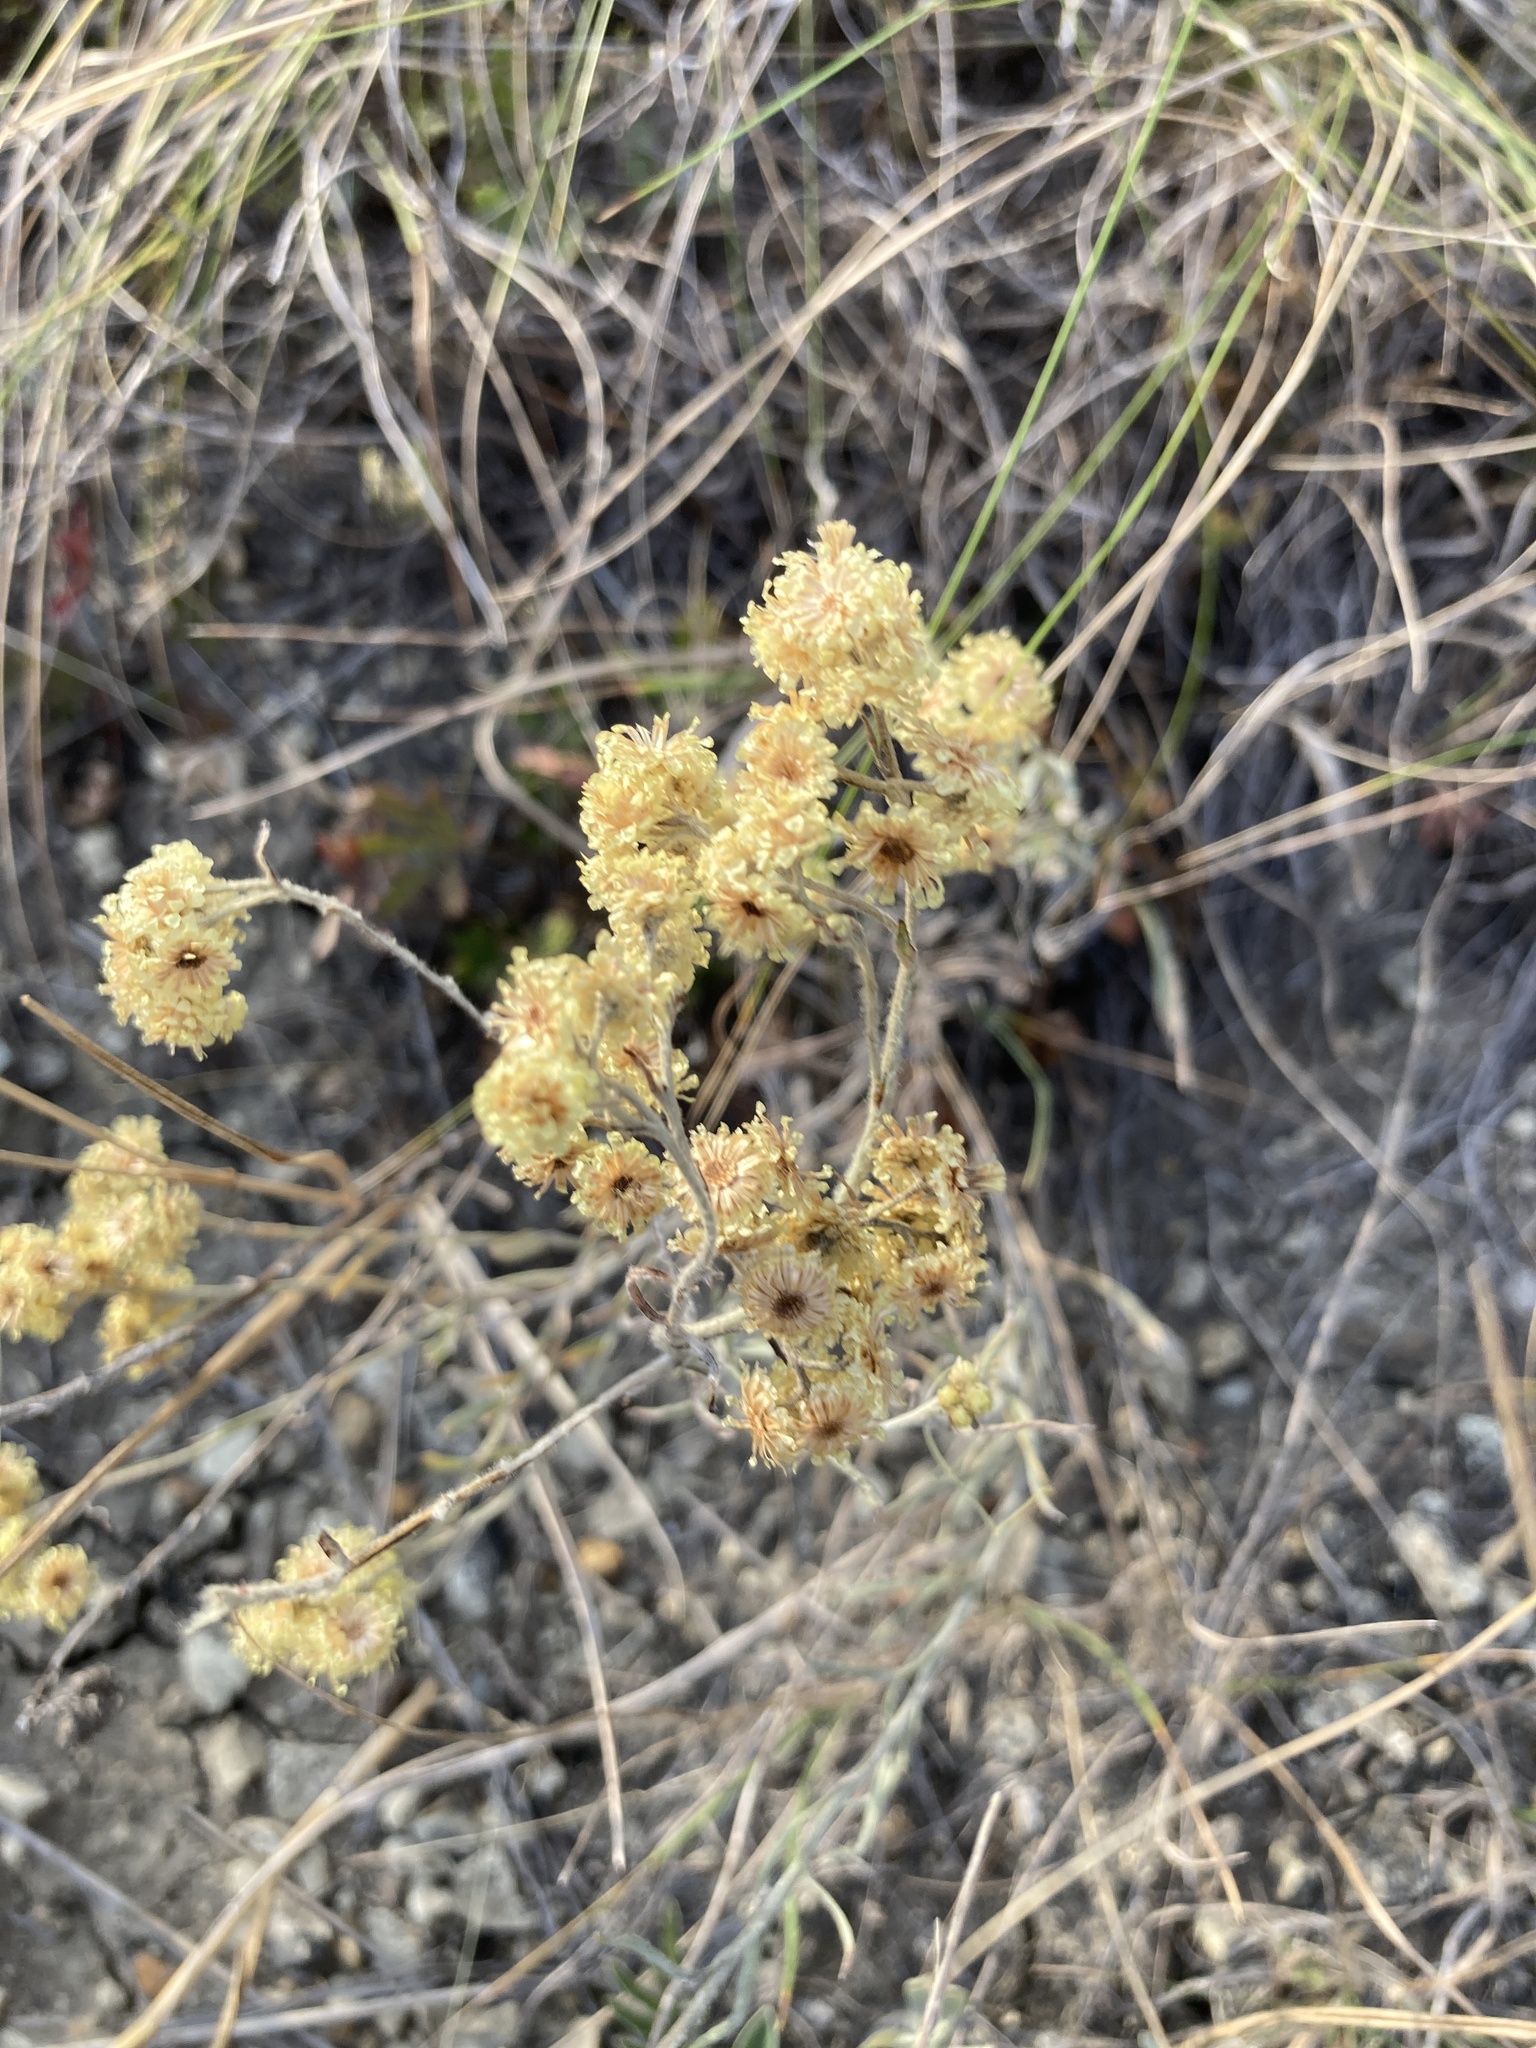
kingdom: Plantae
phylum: Tracheophyta
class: Magnoliopsida
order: Asterales
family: Asteraceae
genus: Helichrysum
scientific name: Helichrysum arenarium
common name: Strawflower
